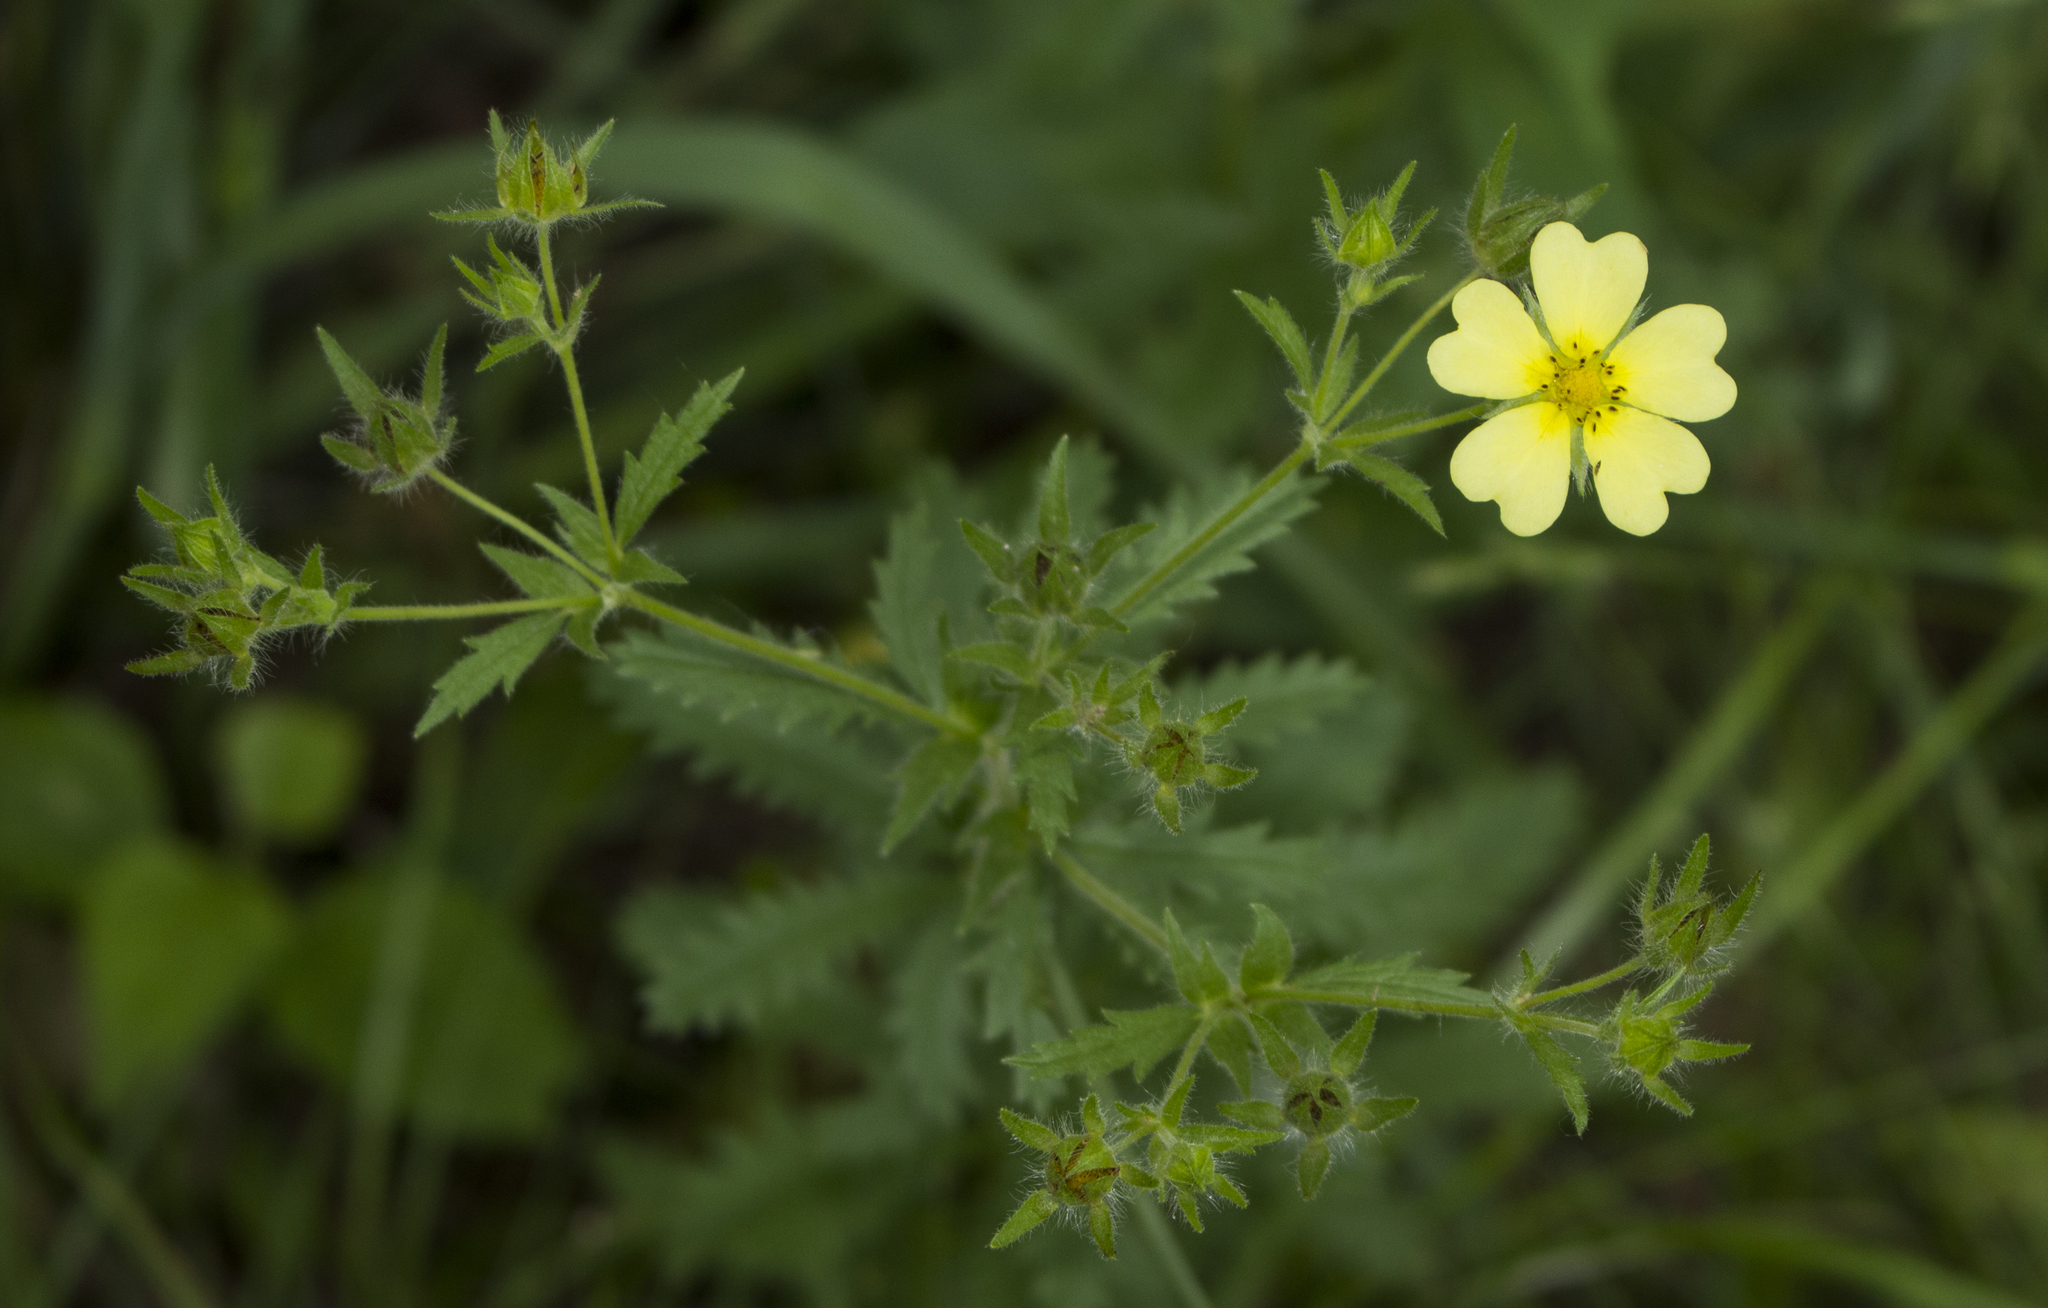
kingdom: Plantae
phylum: Tracheophyta
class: Magnoliopsida
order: Rosales
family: Rosaceae
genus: Potentilla
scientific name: Potentilla recta
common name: Sulphur cinquefoil
